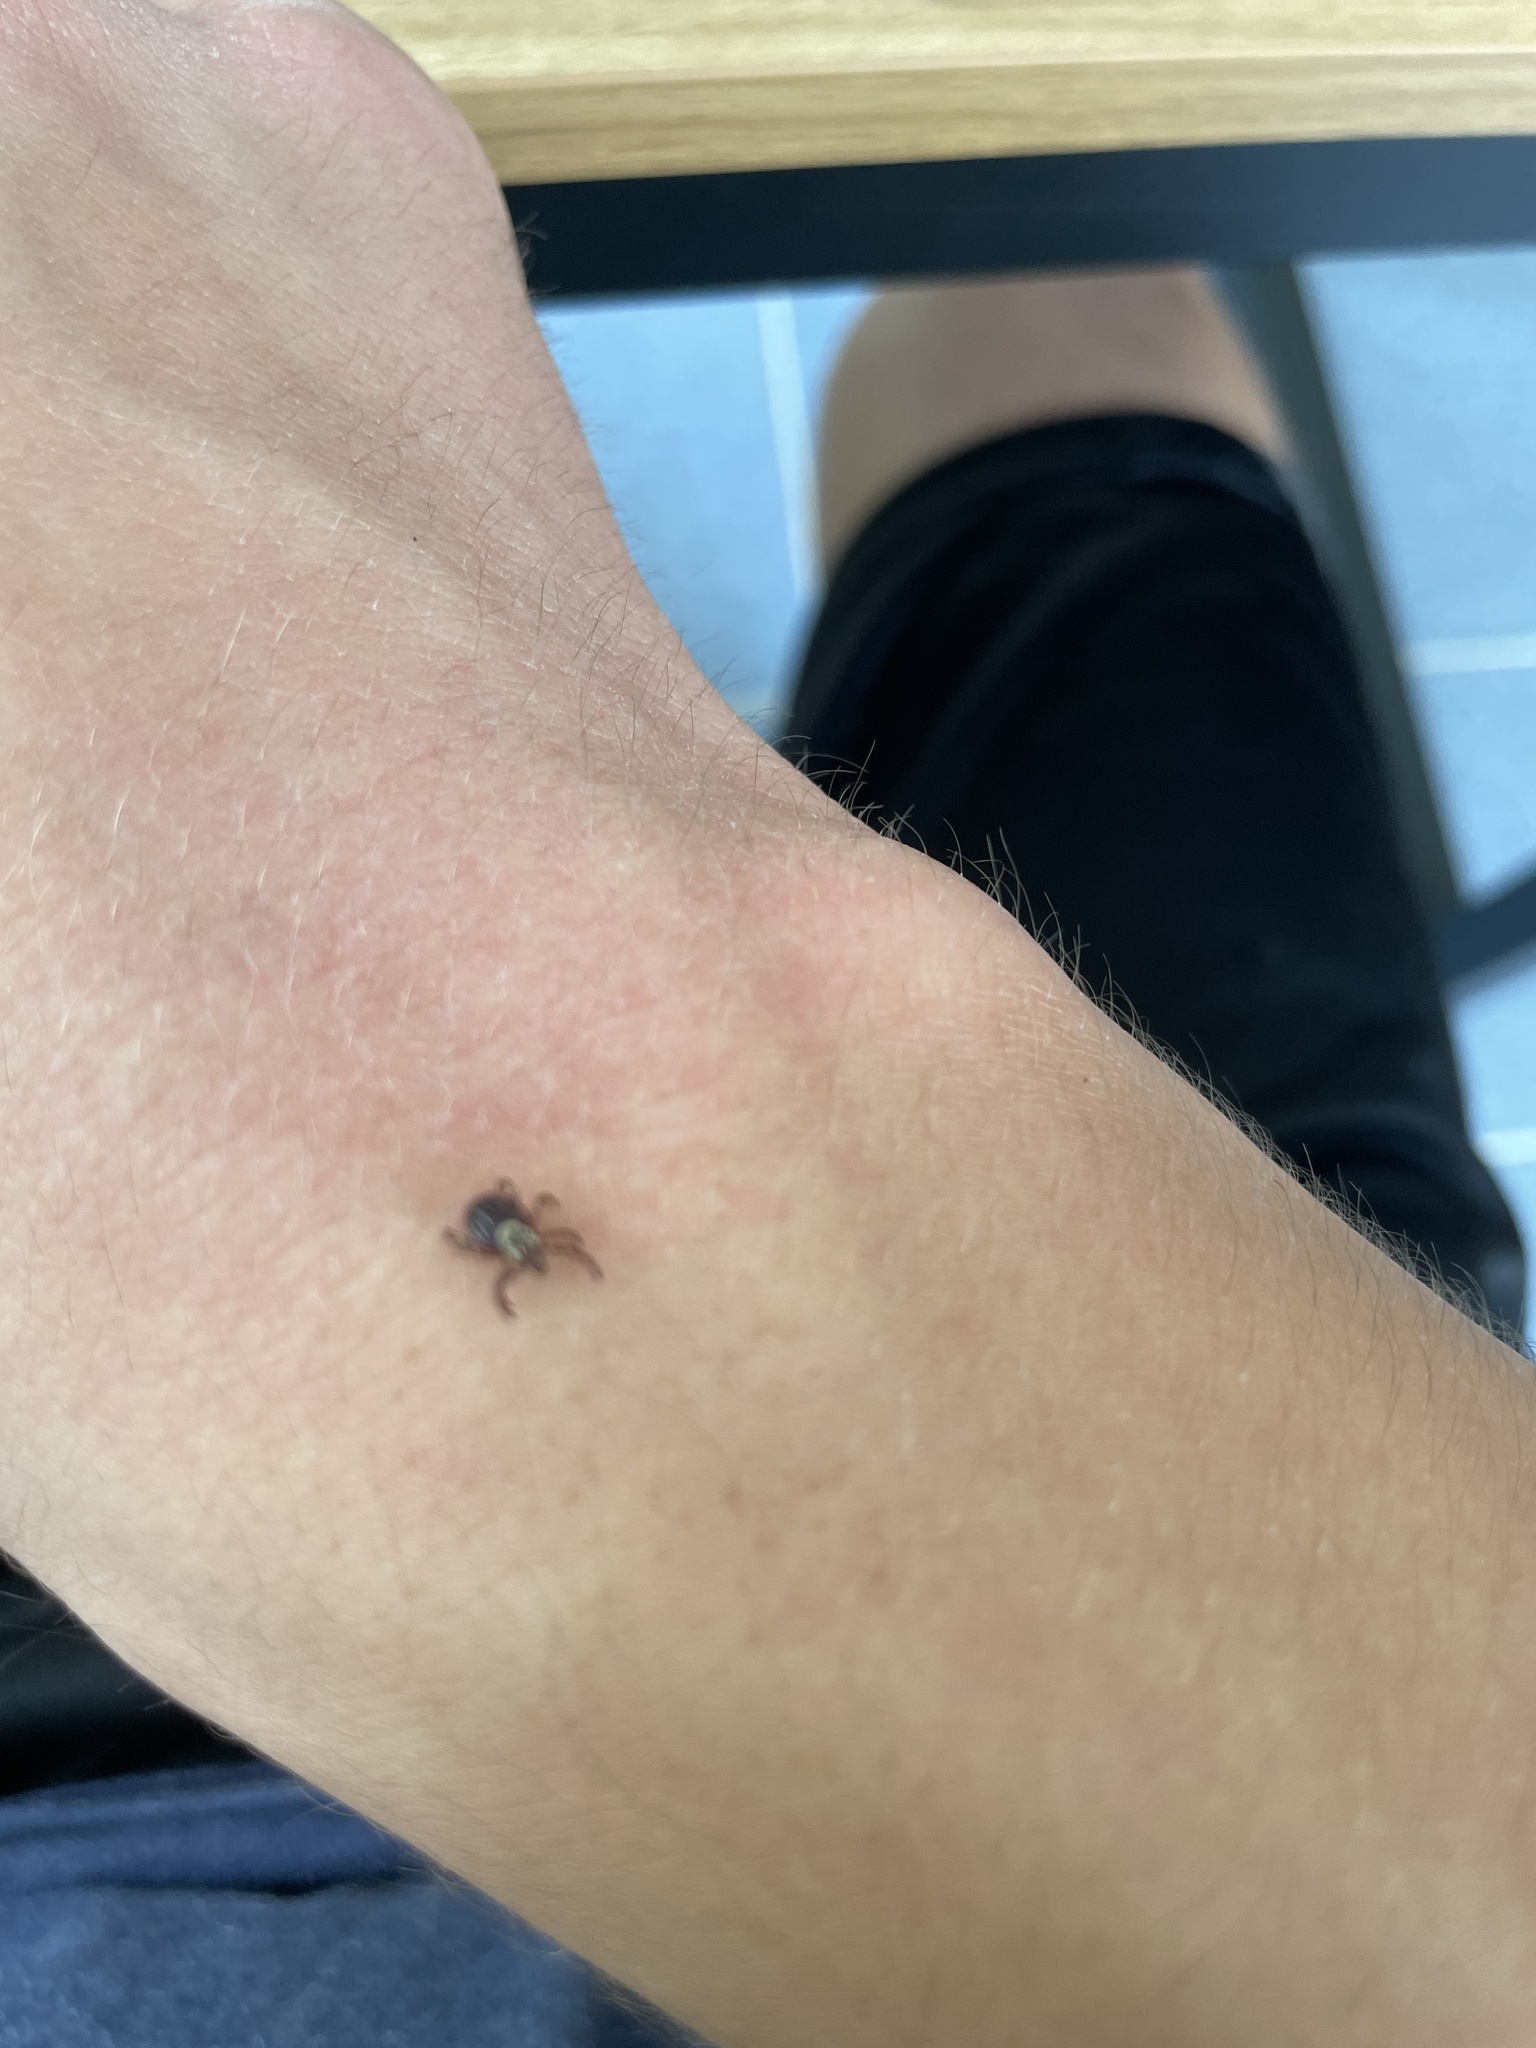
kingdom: Animalia
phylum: Arthropoda
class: Arachnida
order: Ixodida
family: Ixodidae
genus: Dermacentor
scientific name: Dermacentor variabilis
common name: American dog tick
